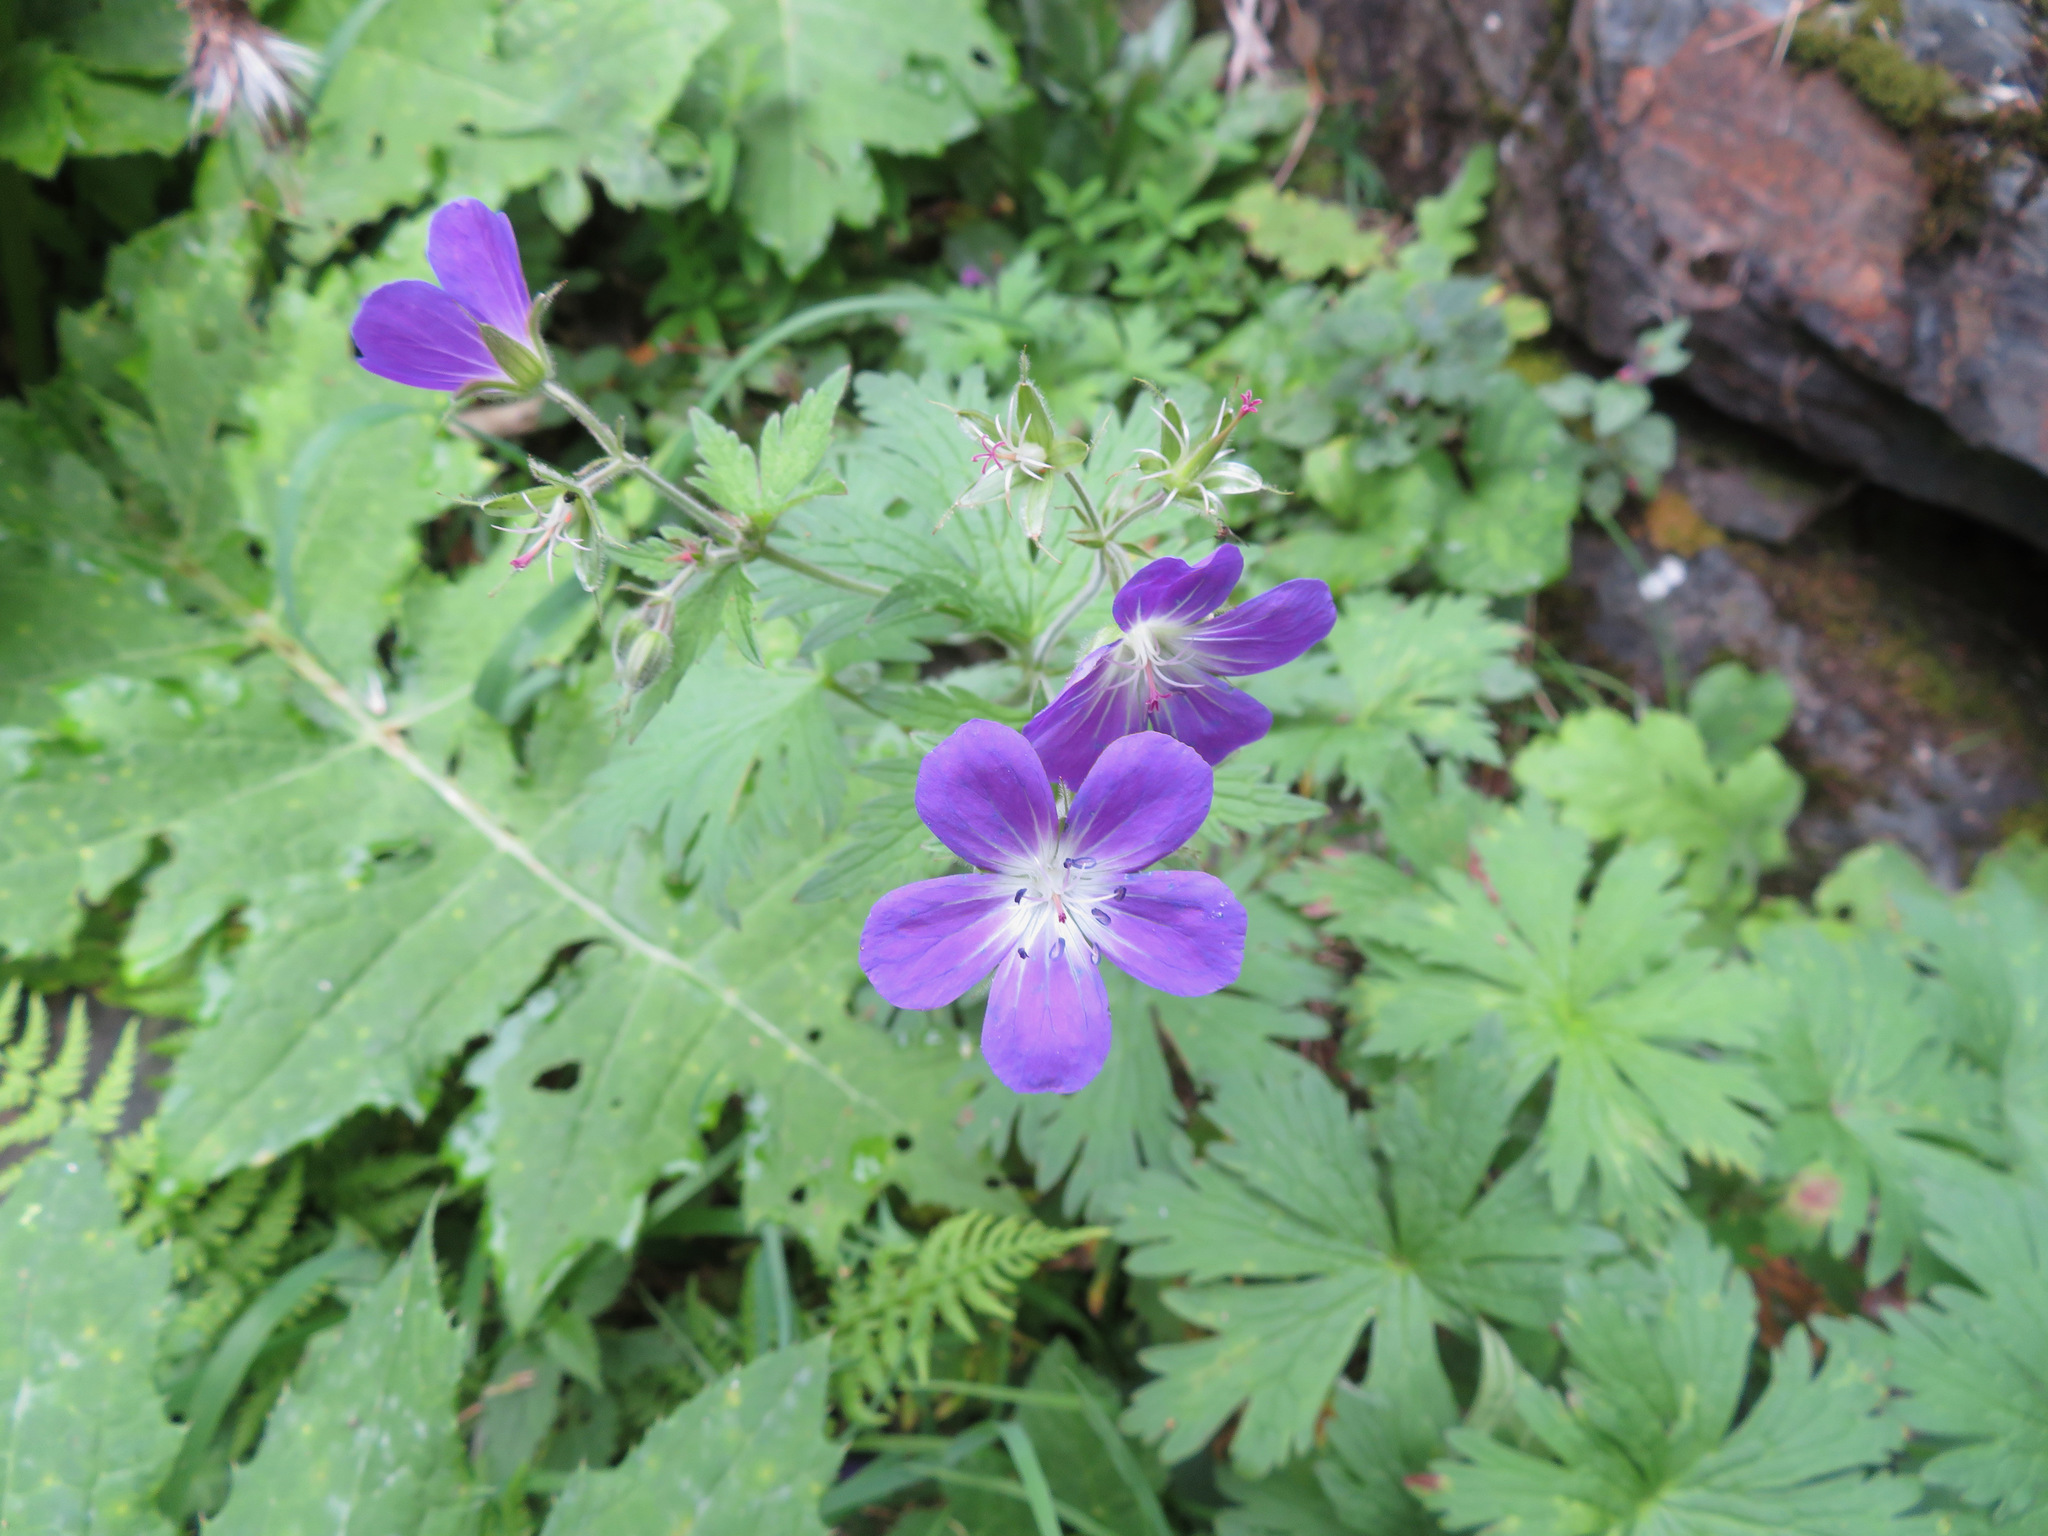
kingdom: Plantae
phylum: Tracheophyta
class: Magnoliopsida
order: Geraniales
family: Geraniaceae
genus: Geranium
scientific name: Geranium sylvaticum
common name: Wood crane's-bill
